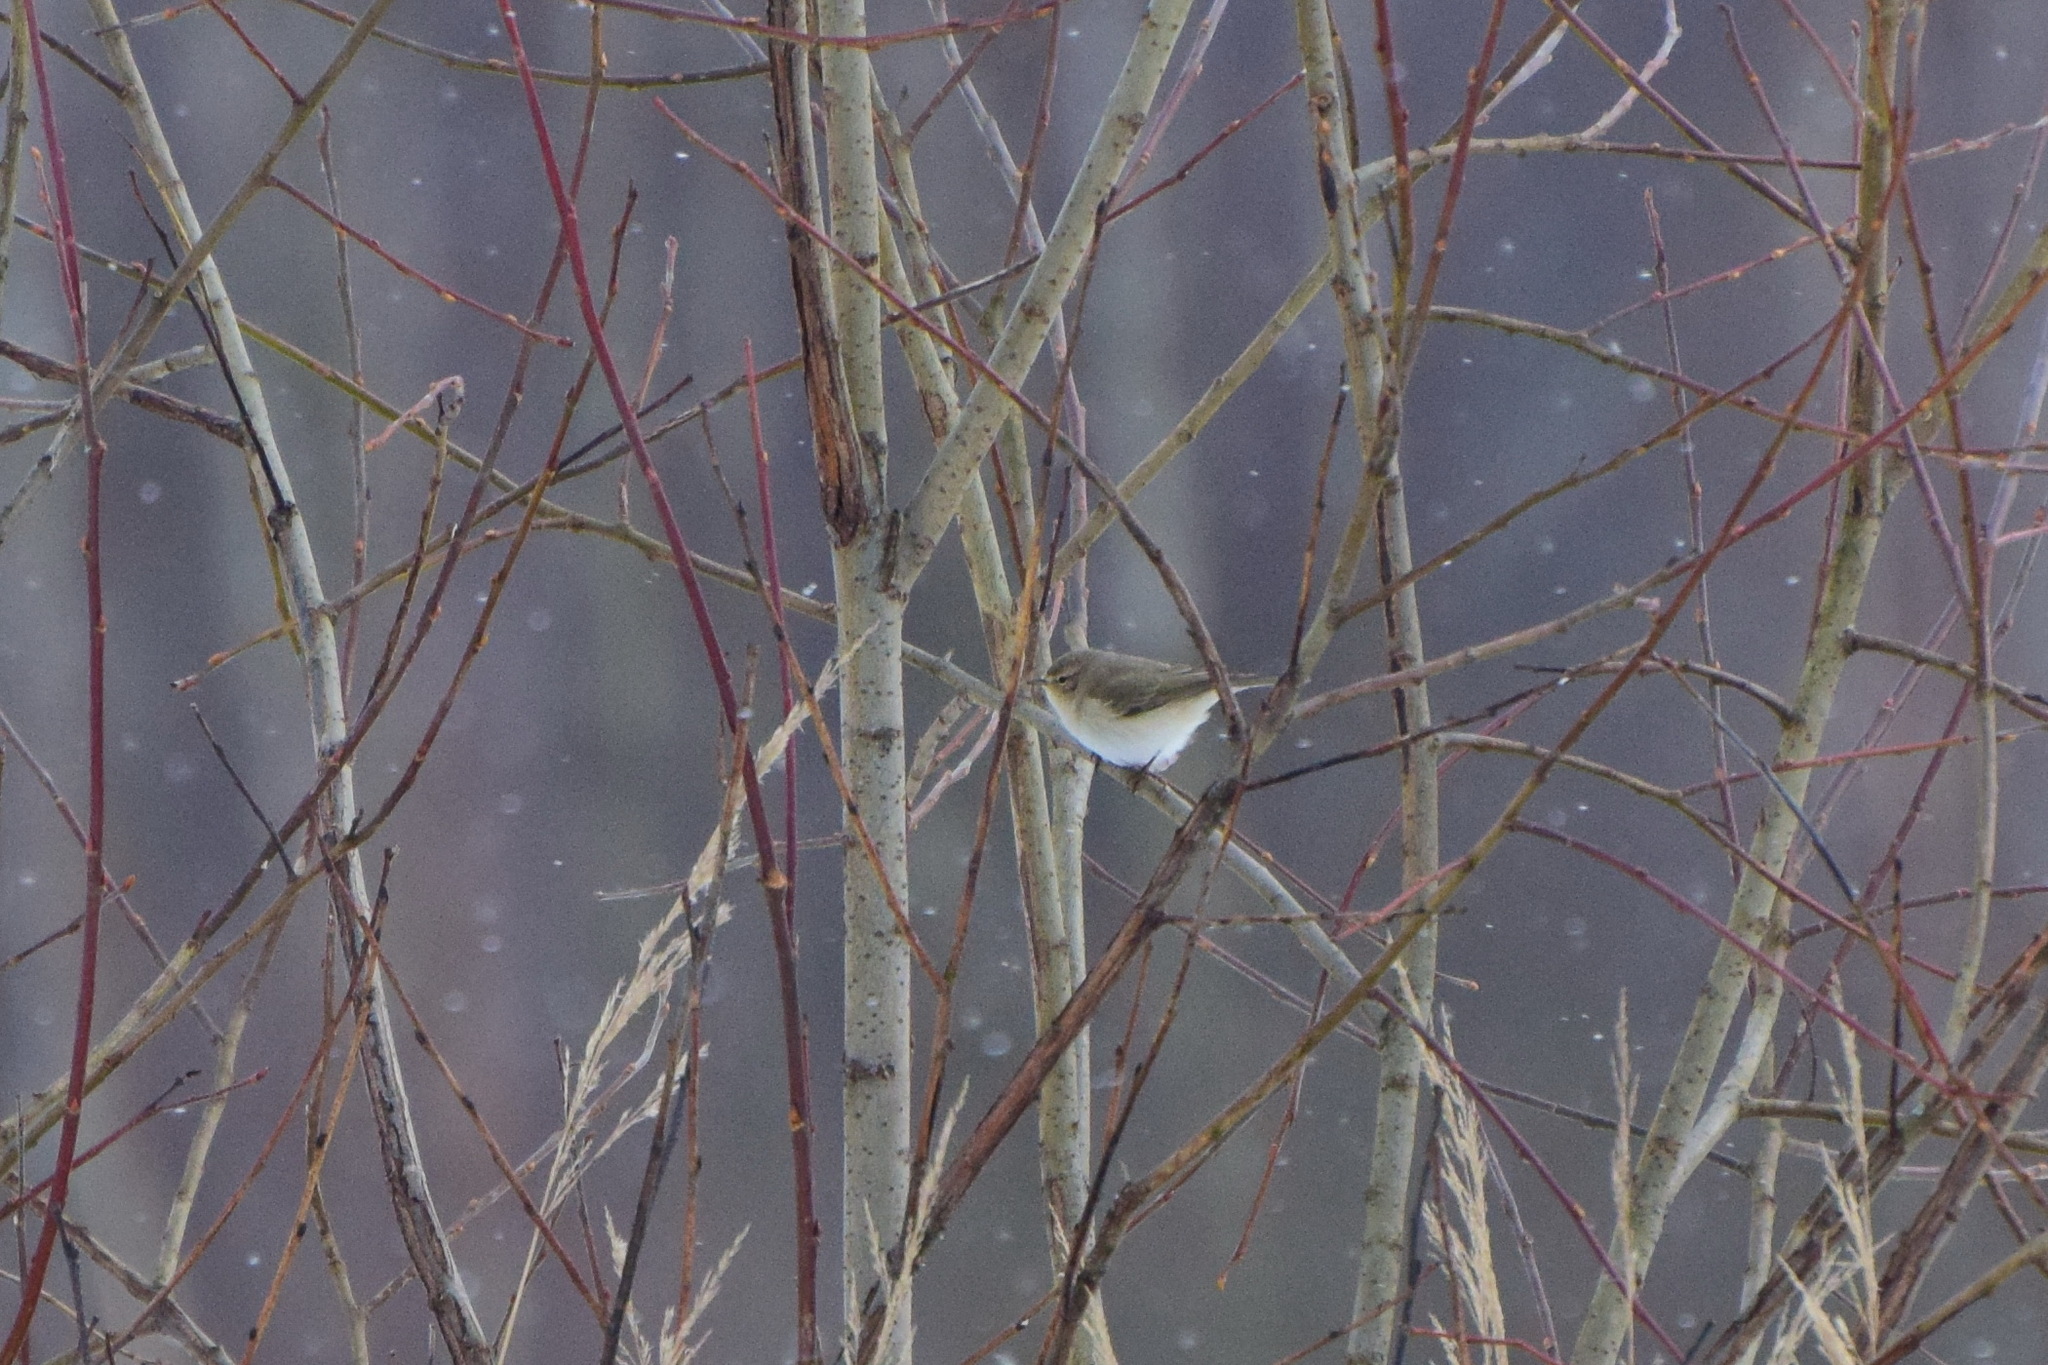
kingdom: Animalia
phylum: Chordata
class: Aves
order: Passeriformes
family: Phylloscopidae
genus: Phylloscopus
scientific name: Phylloscopus collybita
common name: Common chiffchaff
